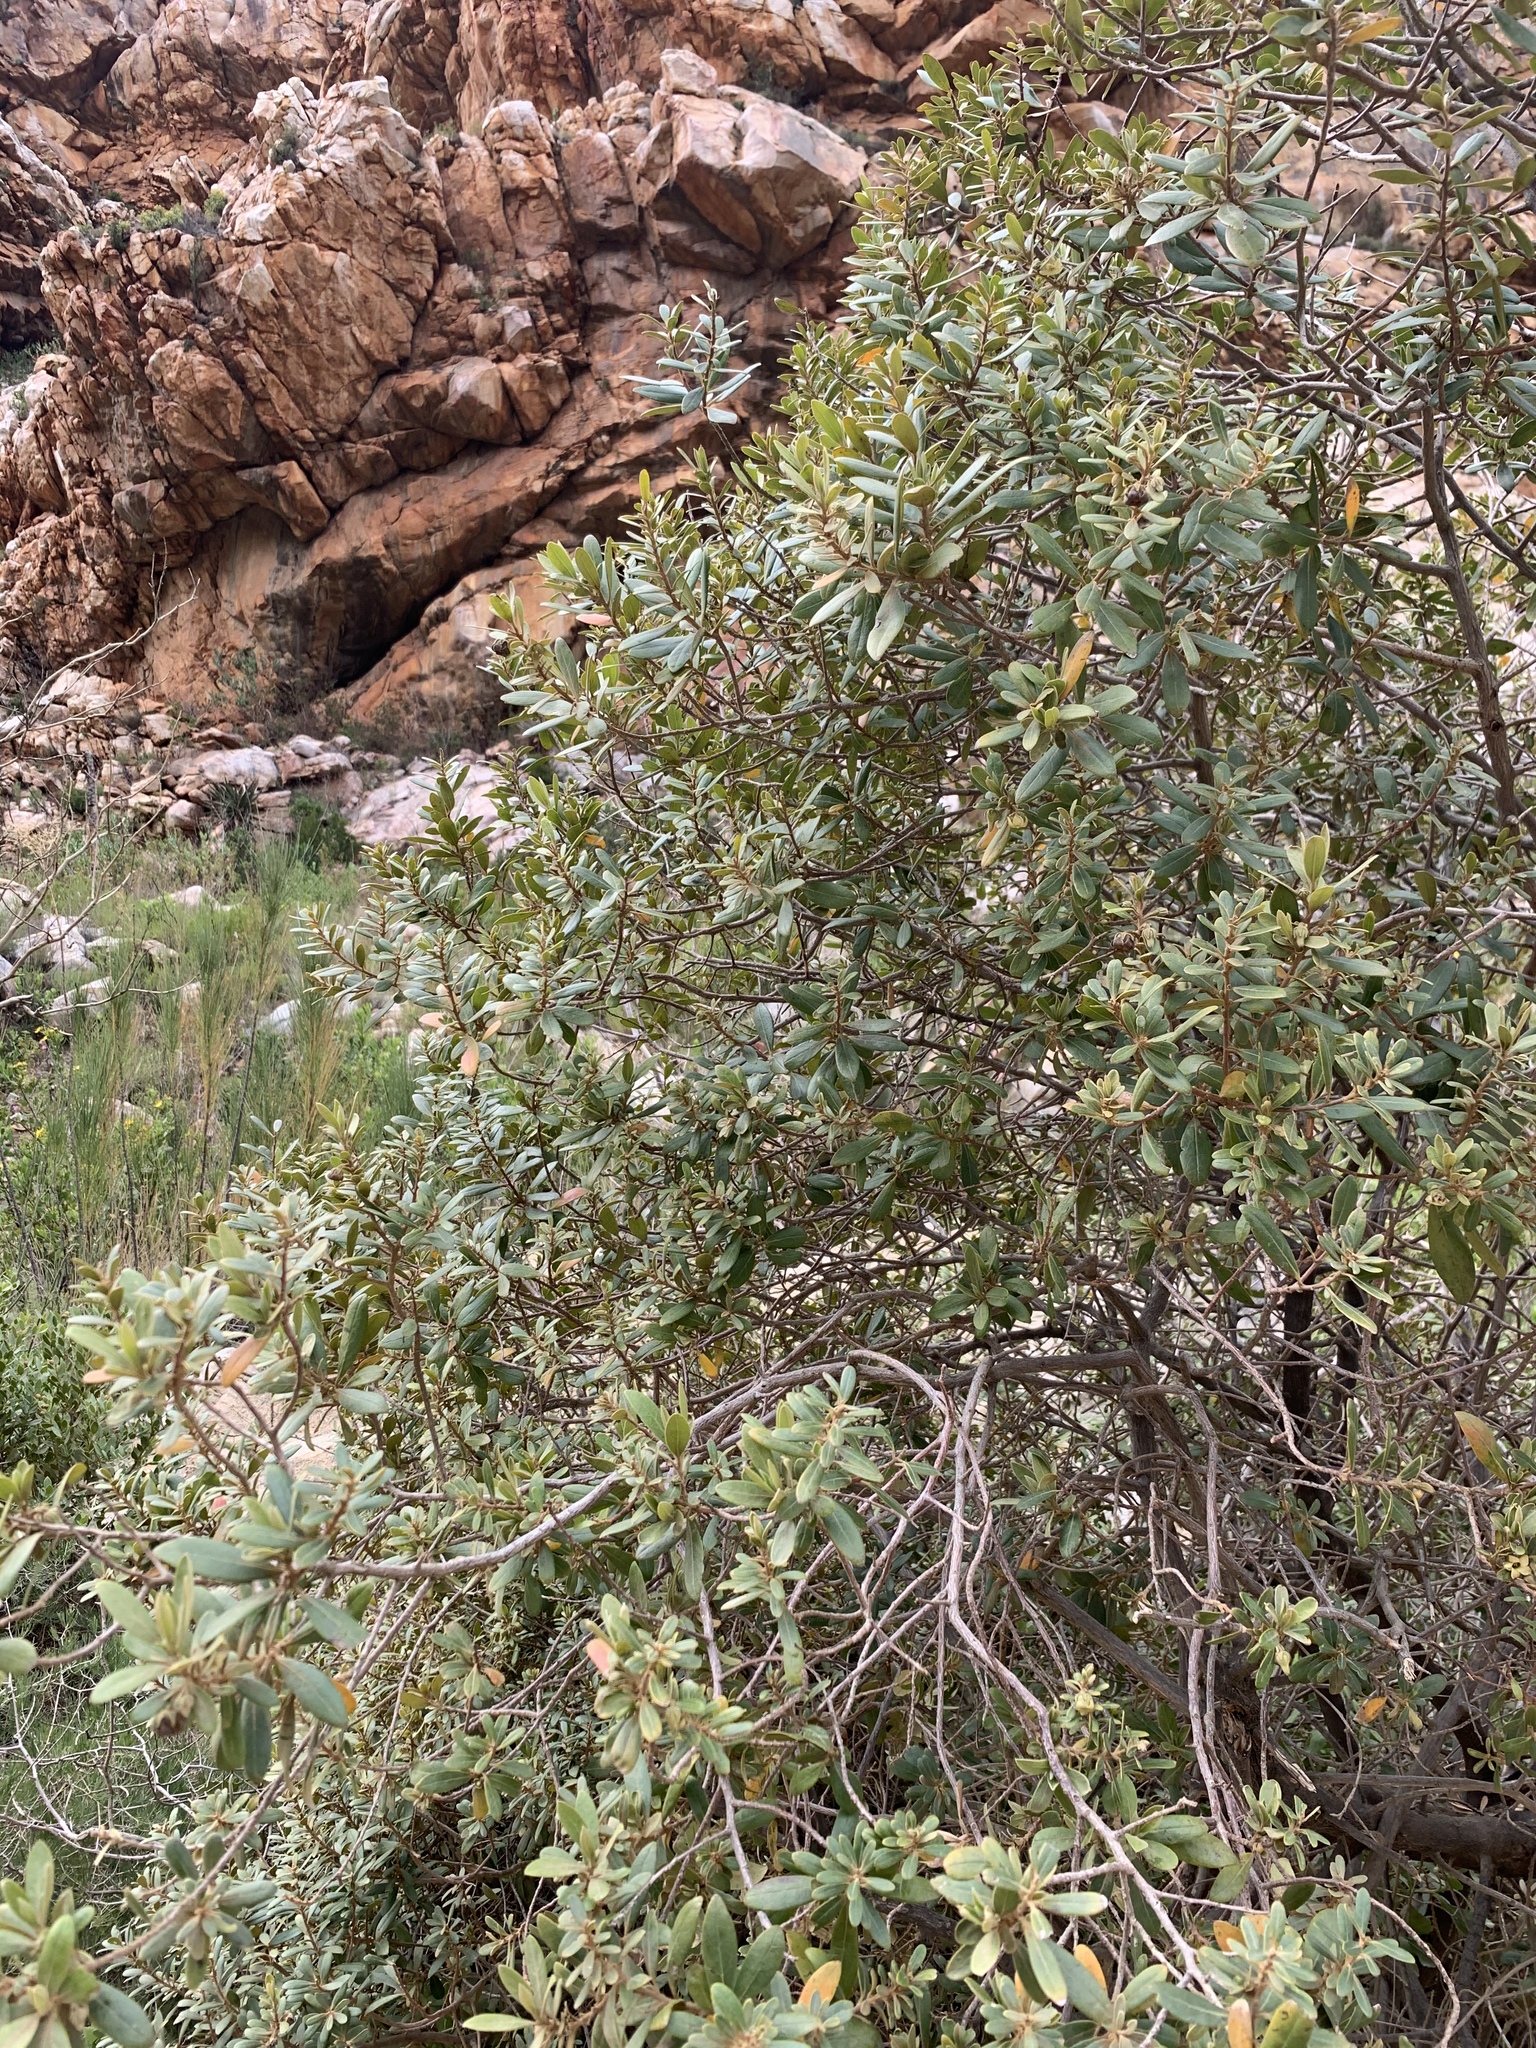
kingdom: Plantae
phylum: Tracheophyta
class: Magnoliopsida
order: Ericales
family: Ebenaceae
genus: Diospyros
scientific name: Diospyros dichrophylla
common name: Common star-apple
